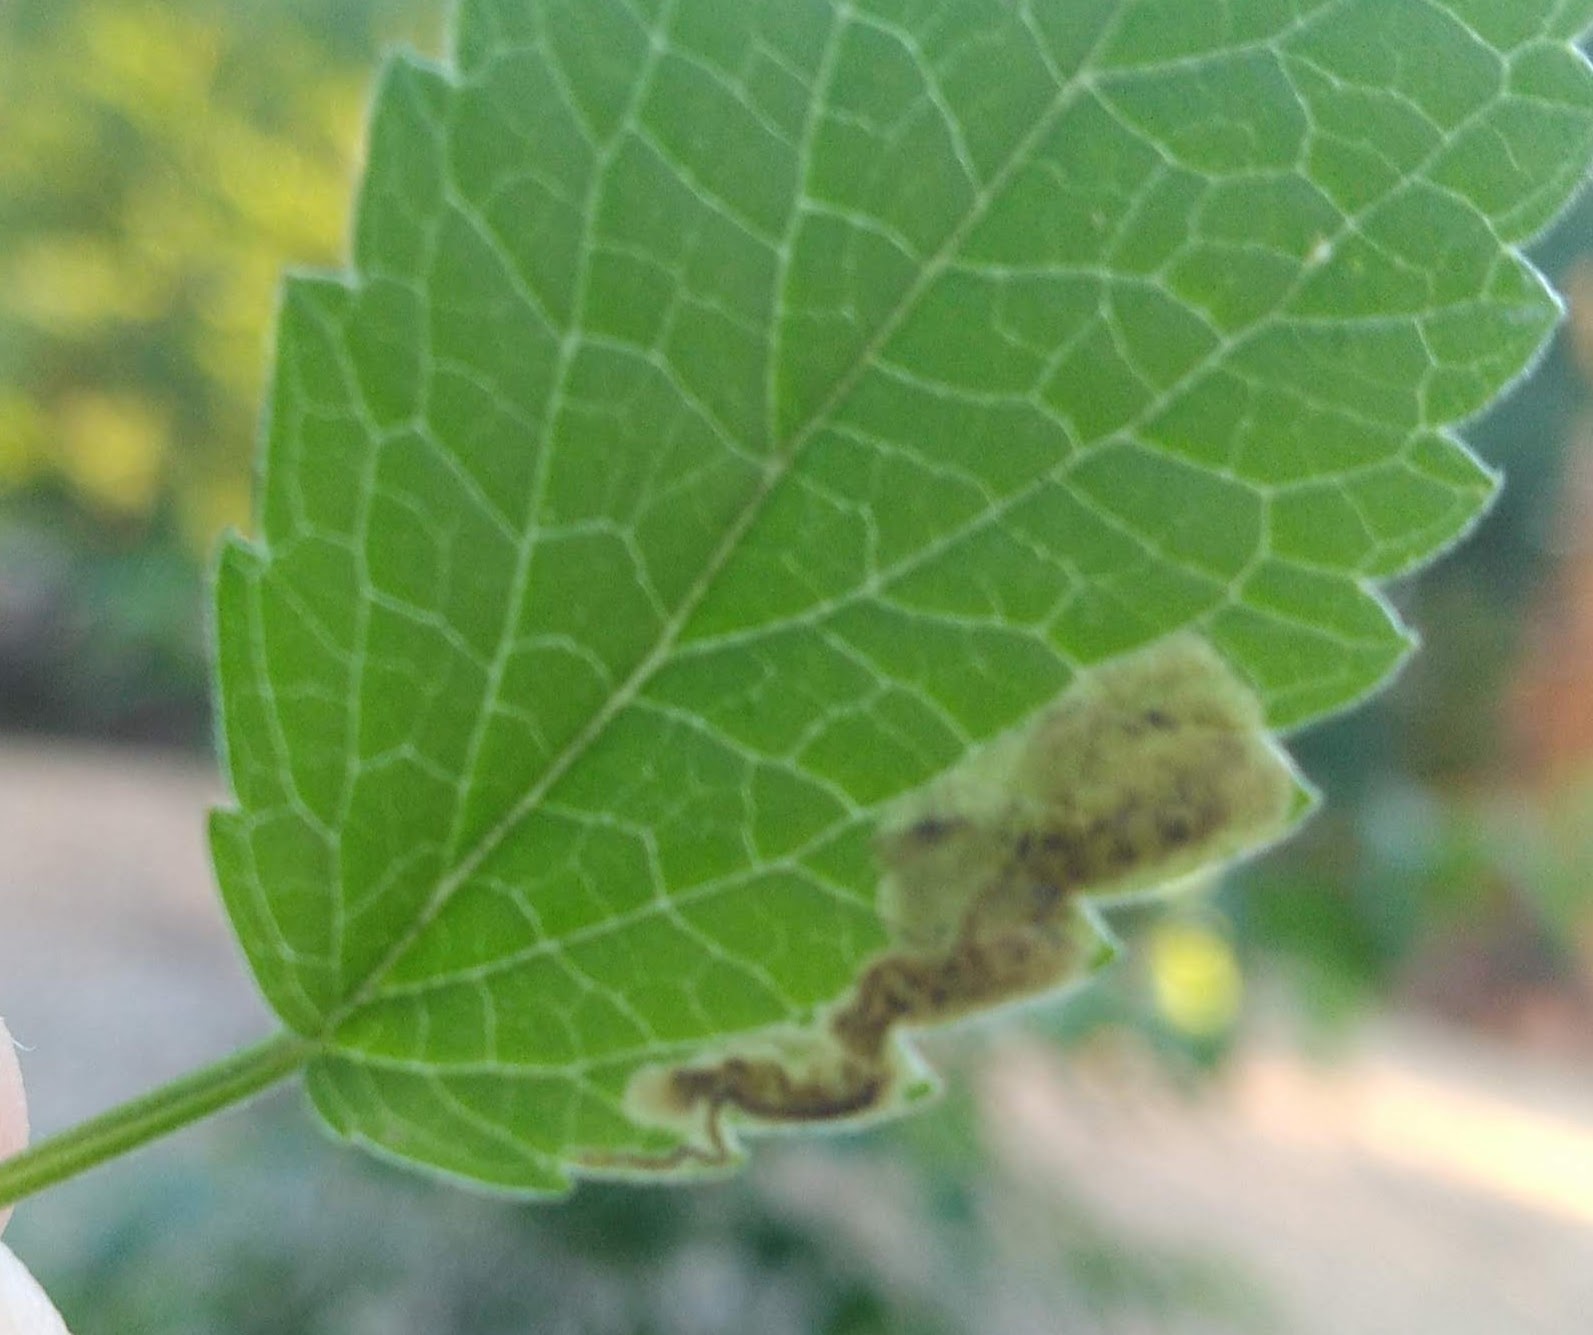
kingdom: Animalia
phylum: Arthropoda
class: Insecta
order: Diptera
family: Agromyzidae
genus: Calycomyza
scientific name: Calycomyza menthae
